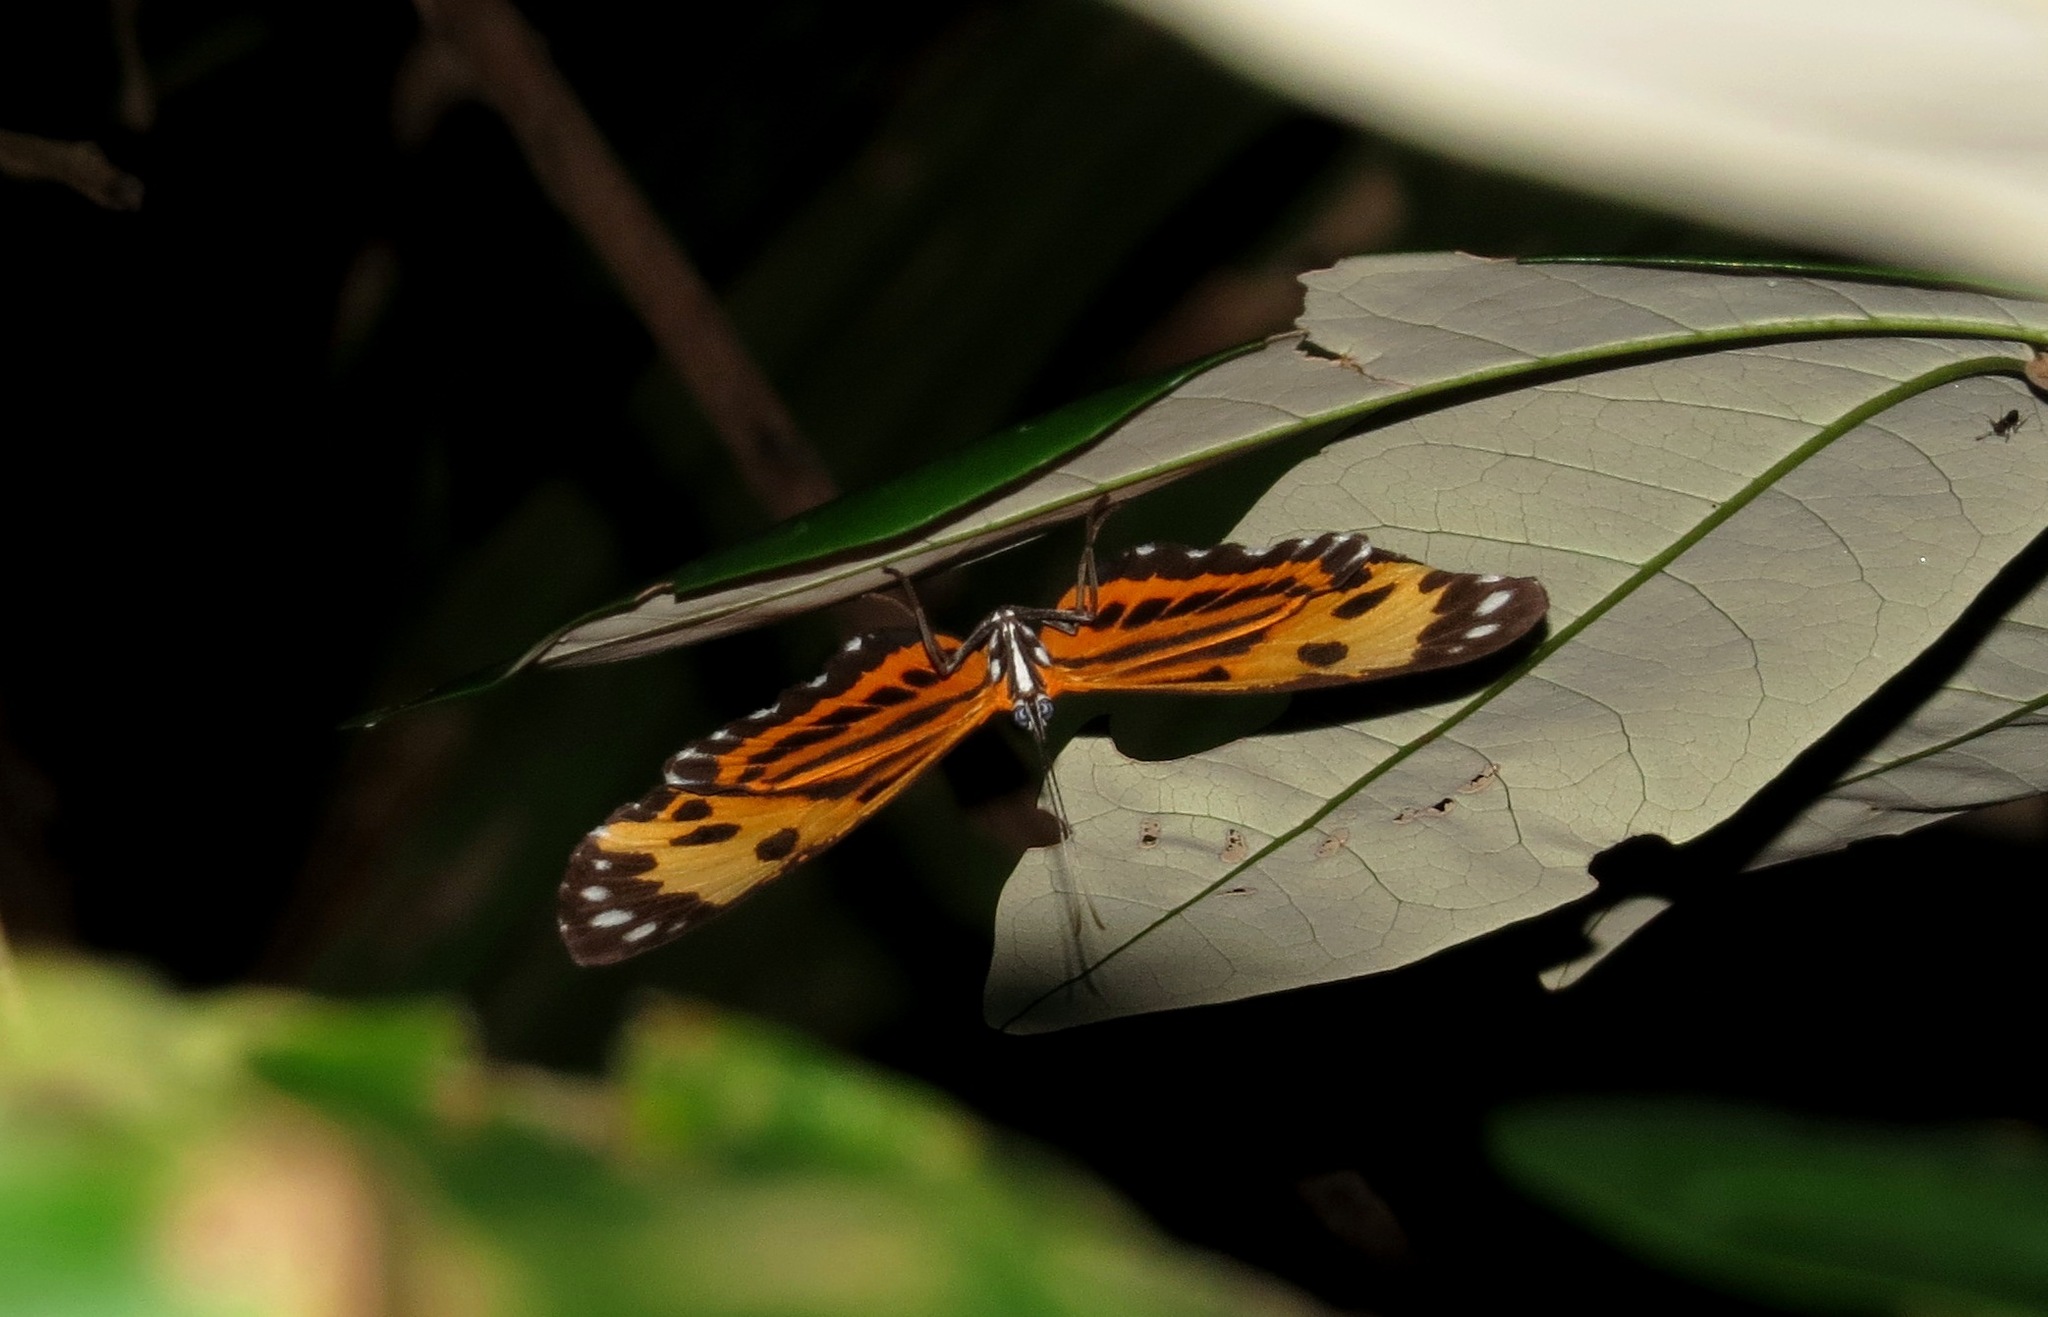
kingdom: Animalia
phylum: Arthropoda
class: Insecta
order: Lepidoptera
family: Riodinidae
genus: Stalachtis
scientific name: Stalachtis calliope
